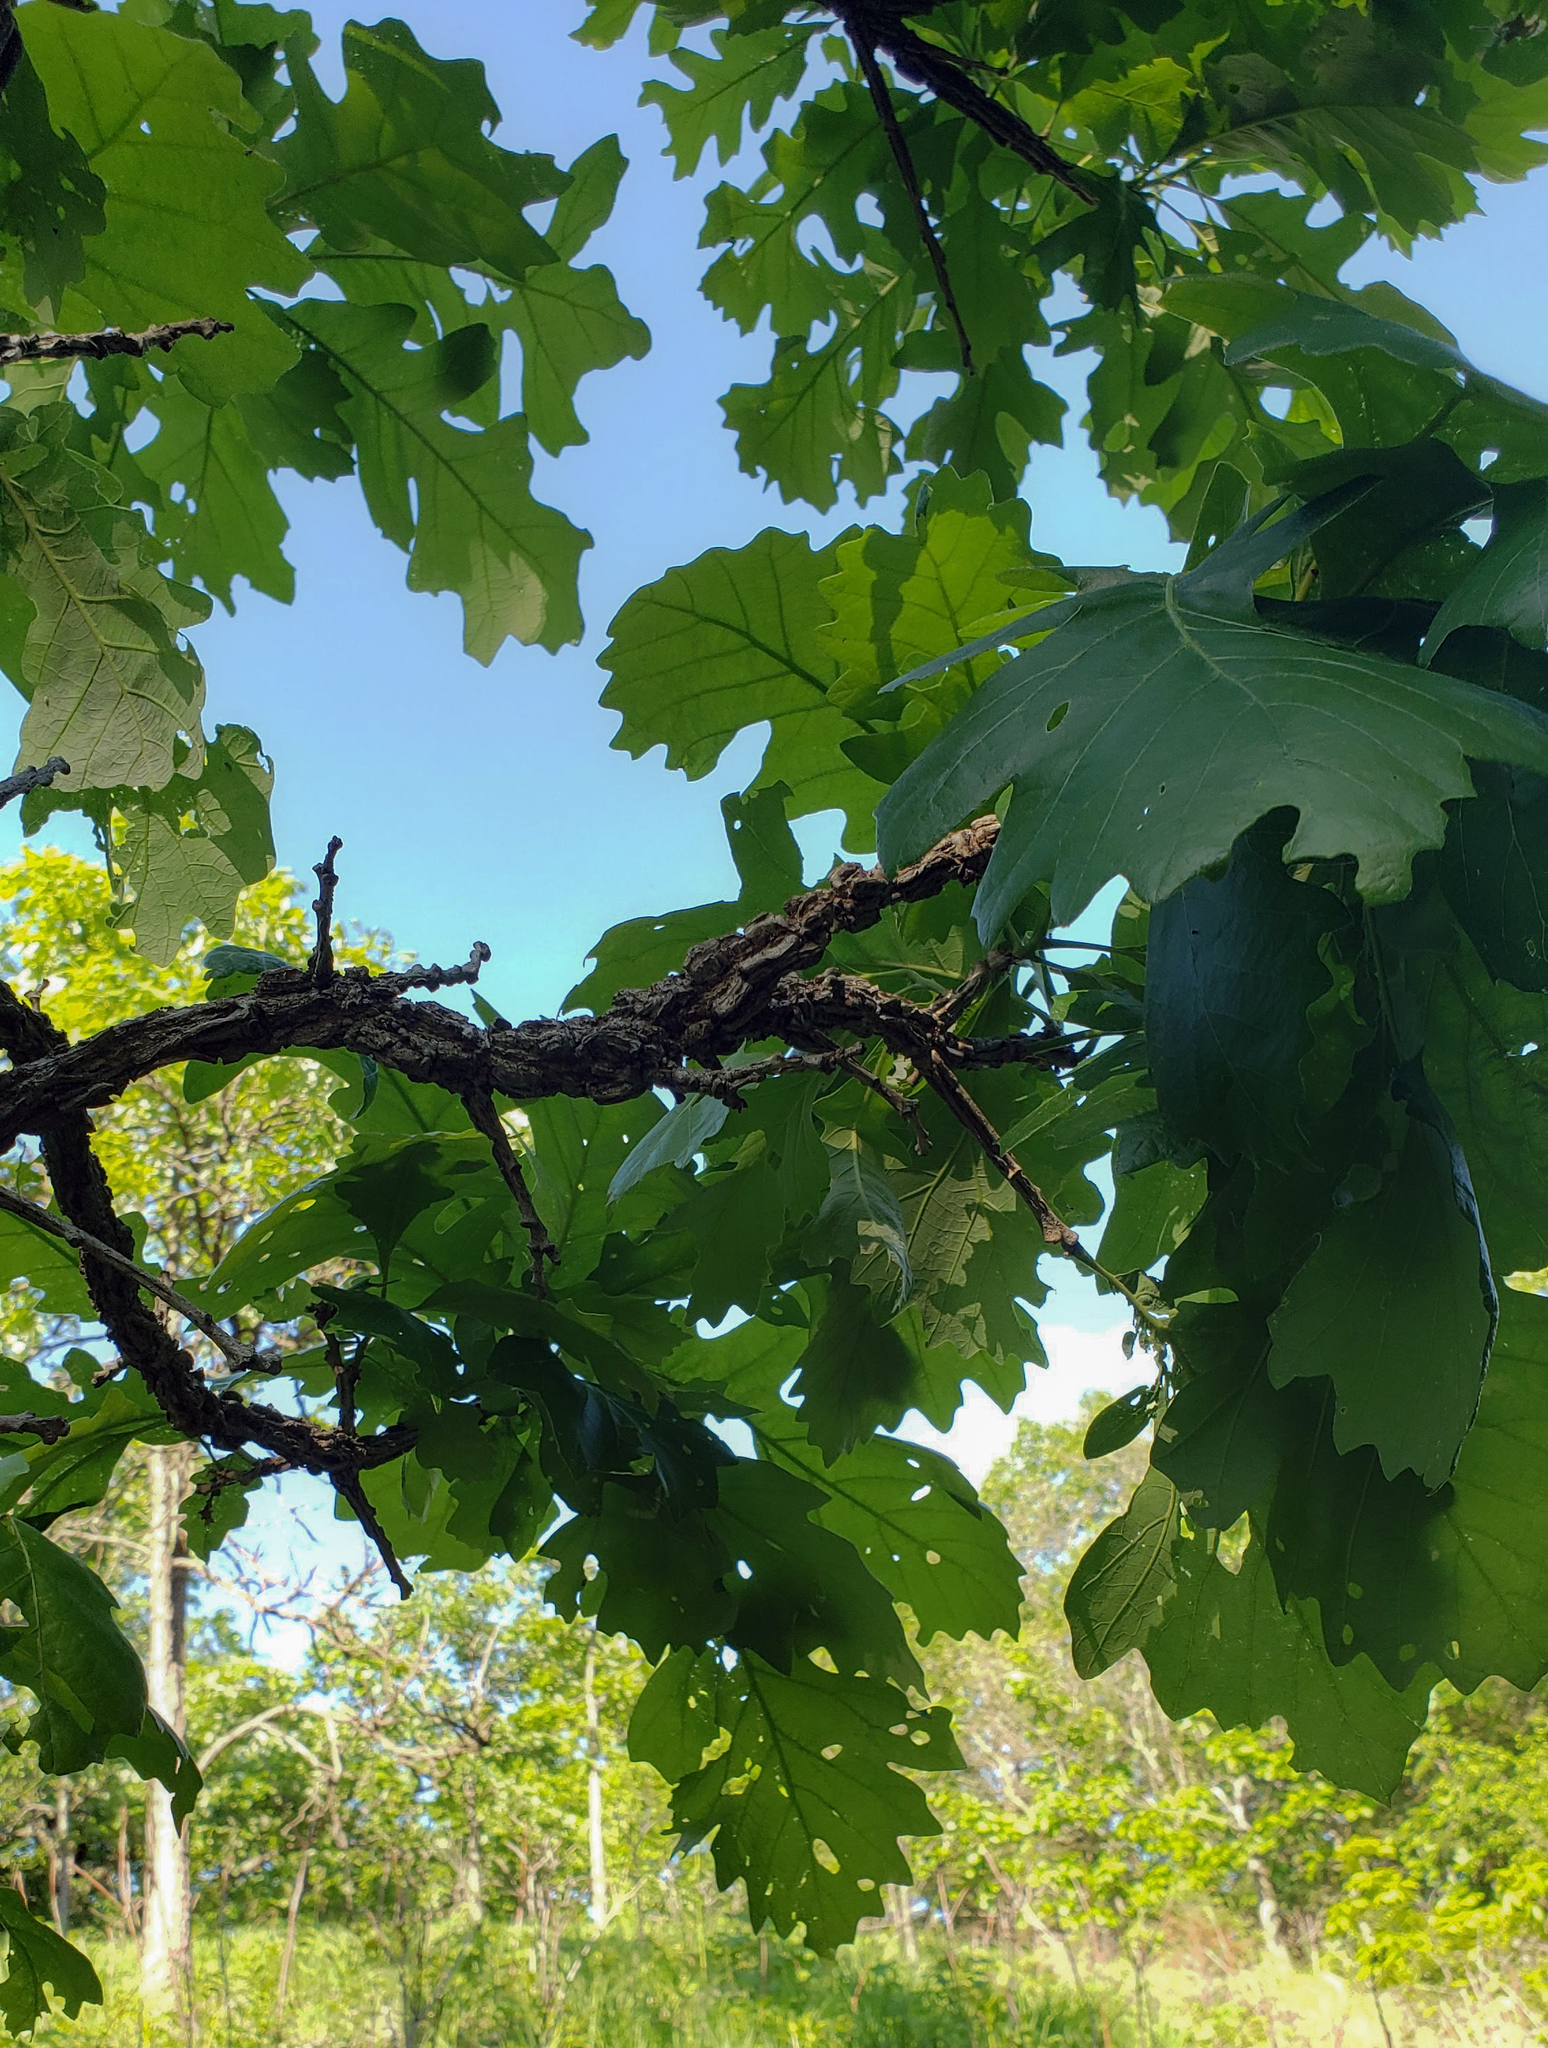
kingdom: Plantae
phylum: Tracheophyta
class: Magnoliopsida
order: Fagales
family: Fagaceae
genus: Quercus
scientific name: Quercus macrocarpa
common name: Bur oak
